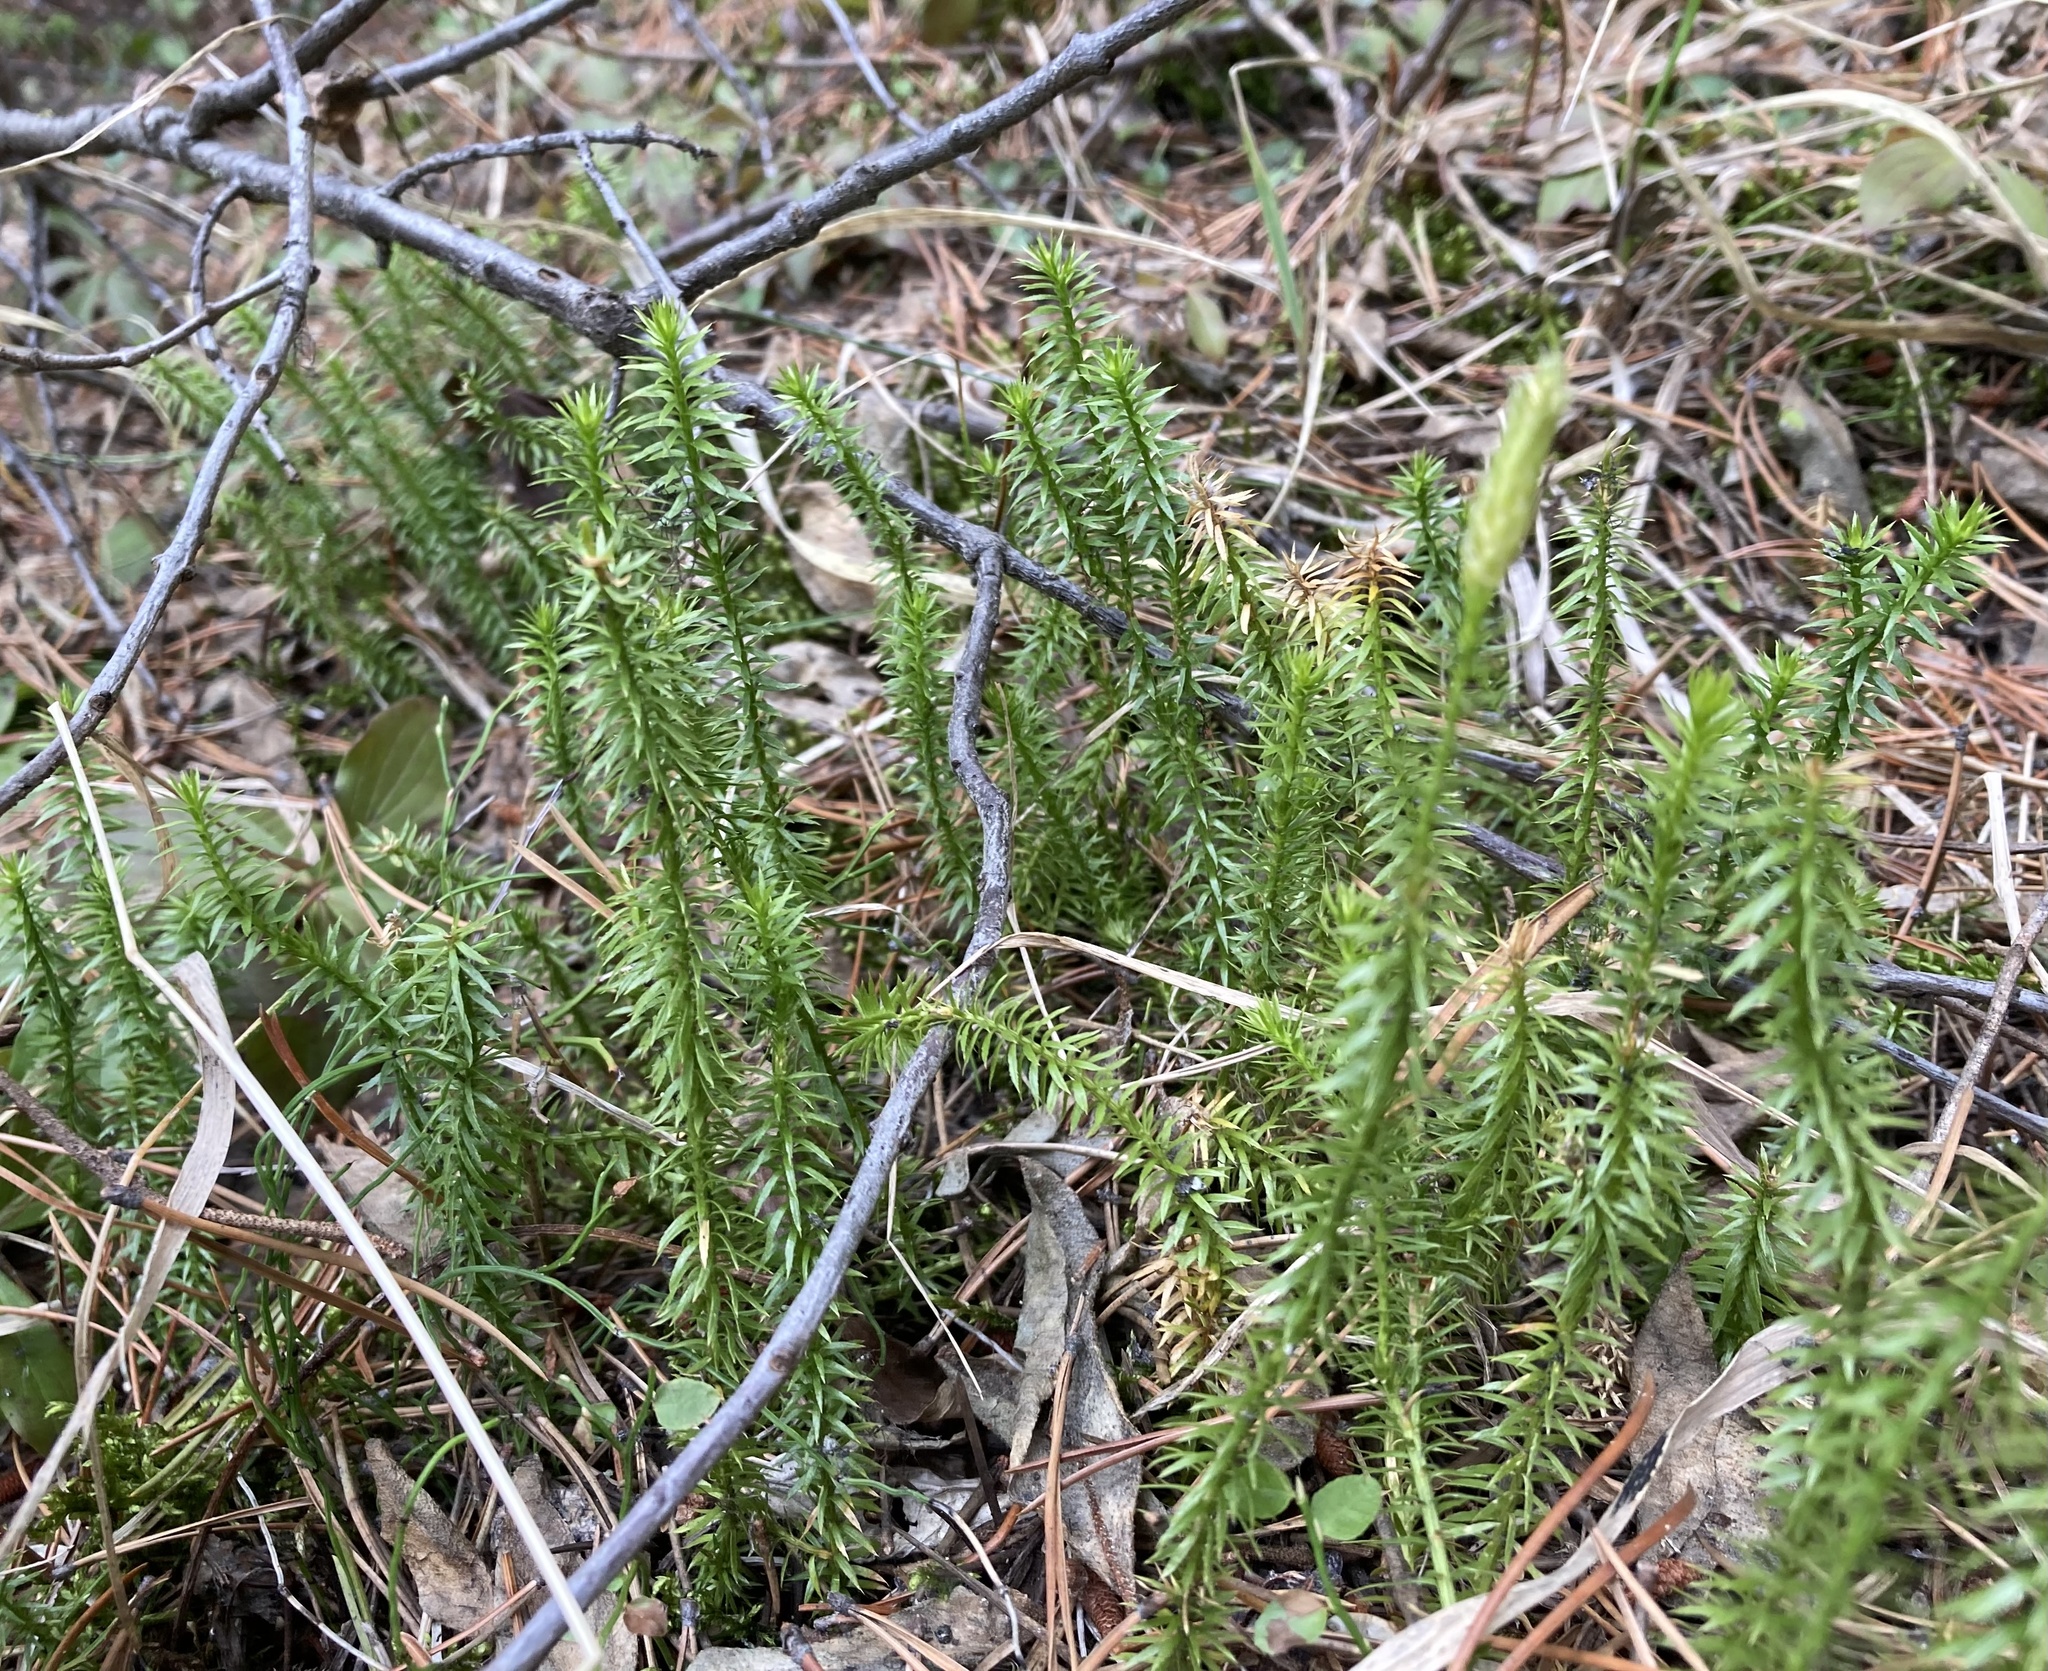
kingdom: Plantae
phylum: Tracheophyta
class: Lycopodiopsida
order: Lycopodiales
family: Lycopodiaceae
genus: Spinulum
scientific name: Spinulum annotinum
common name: Interrupted club-moss
